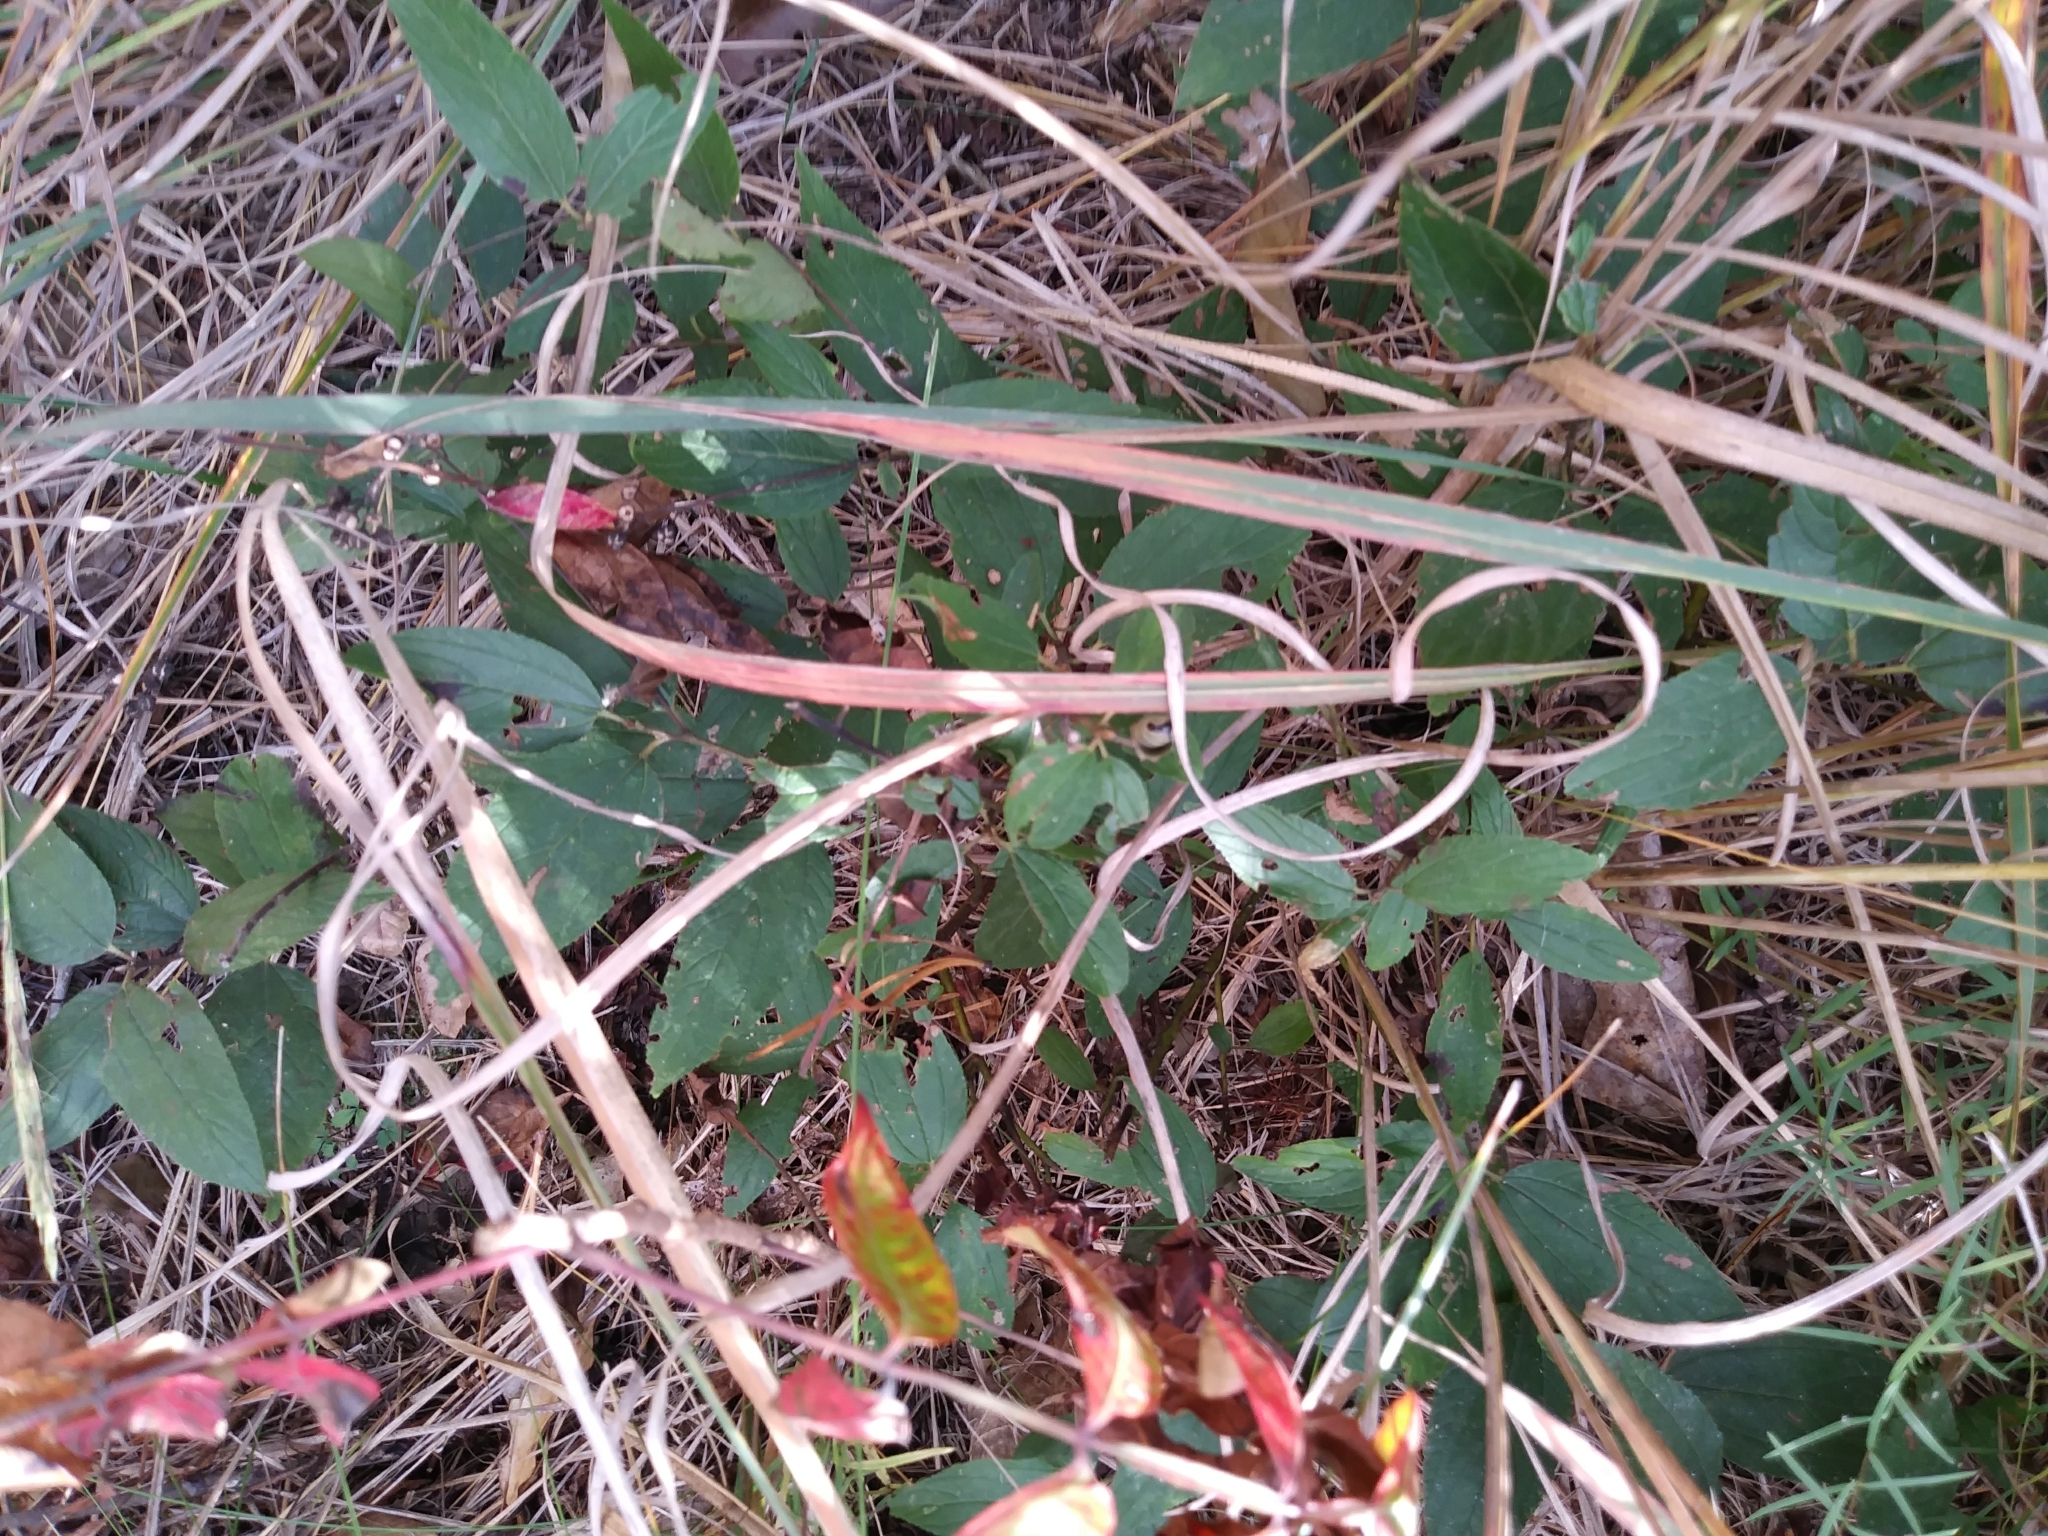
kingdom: Plantae
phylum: Tracheophyta
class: Magnoliopsida
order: Rosales
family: Rhamnaceae
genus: Ceanothus
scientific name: Ceanothus americanus
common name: Redroot
